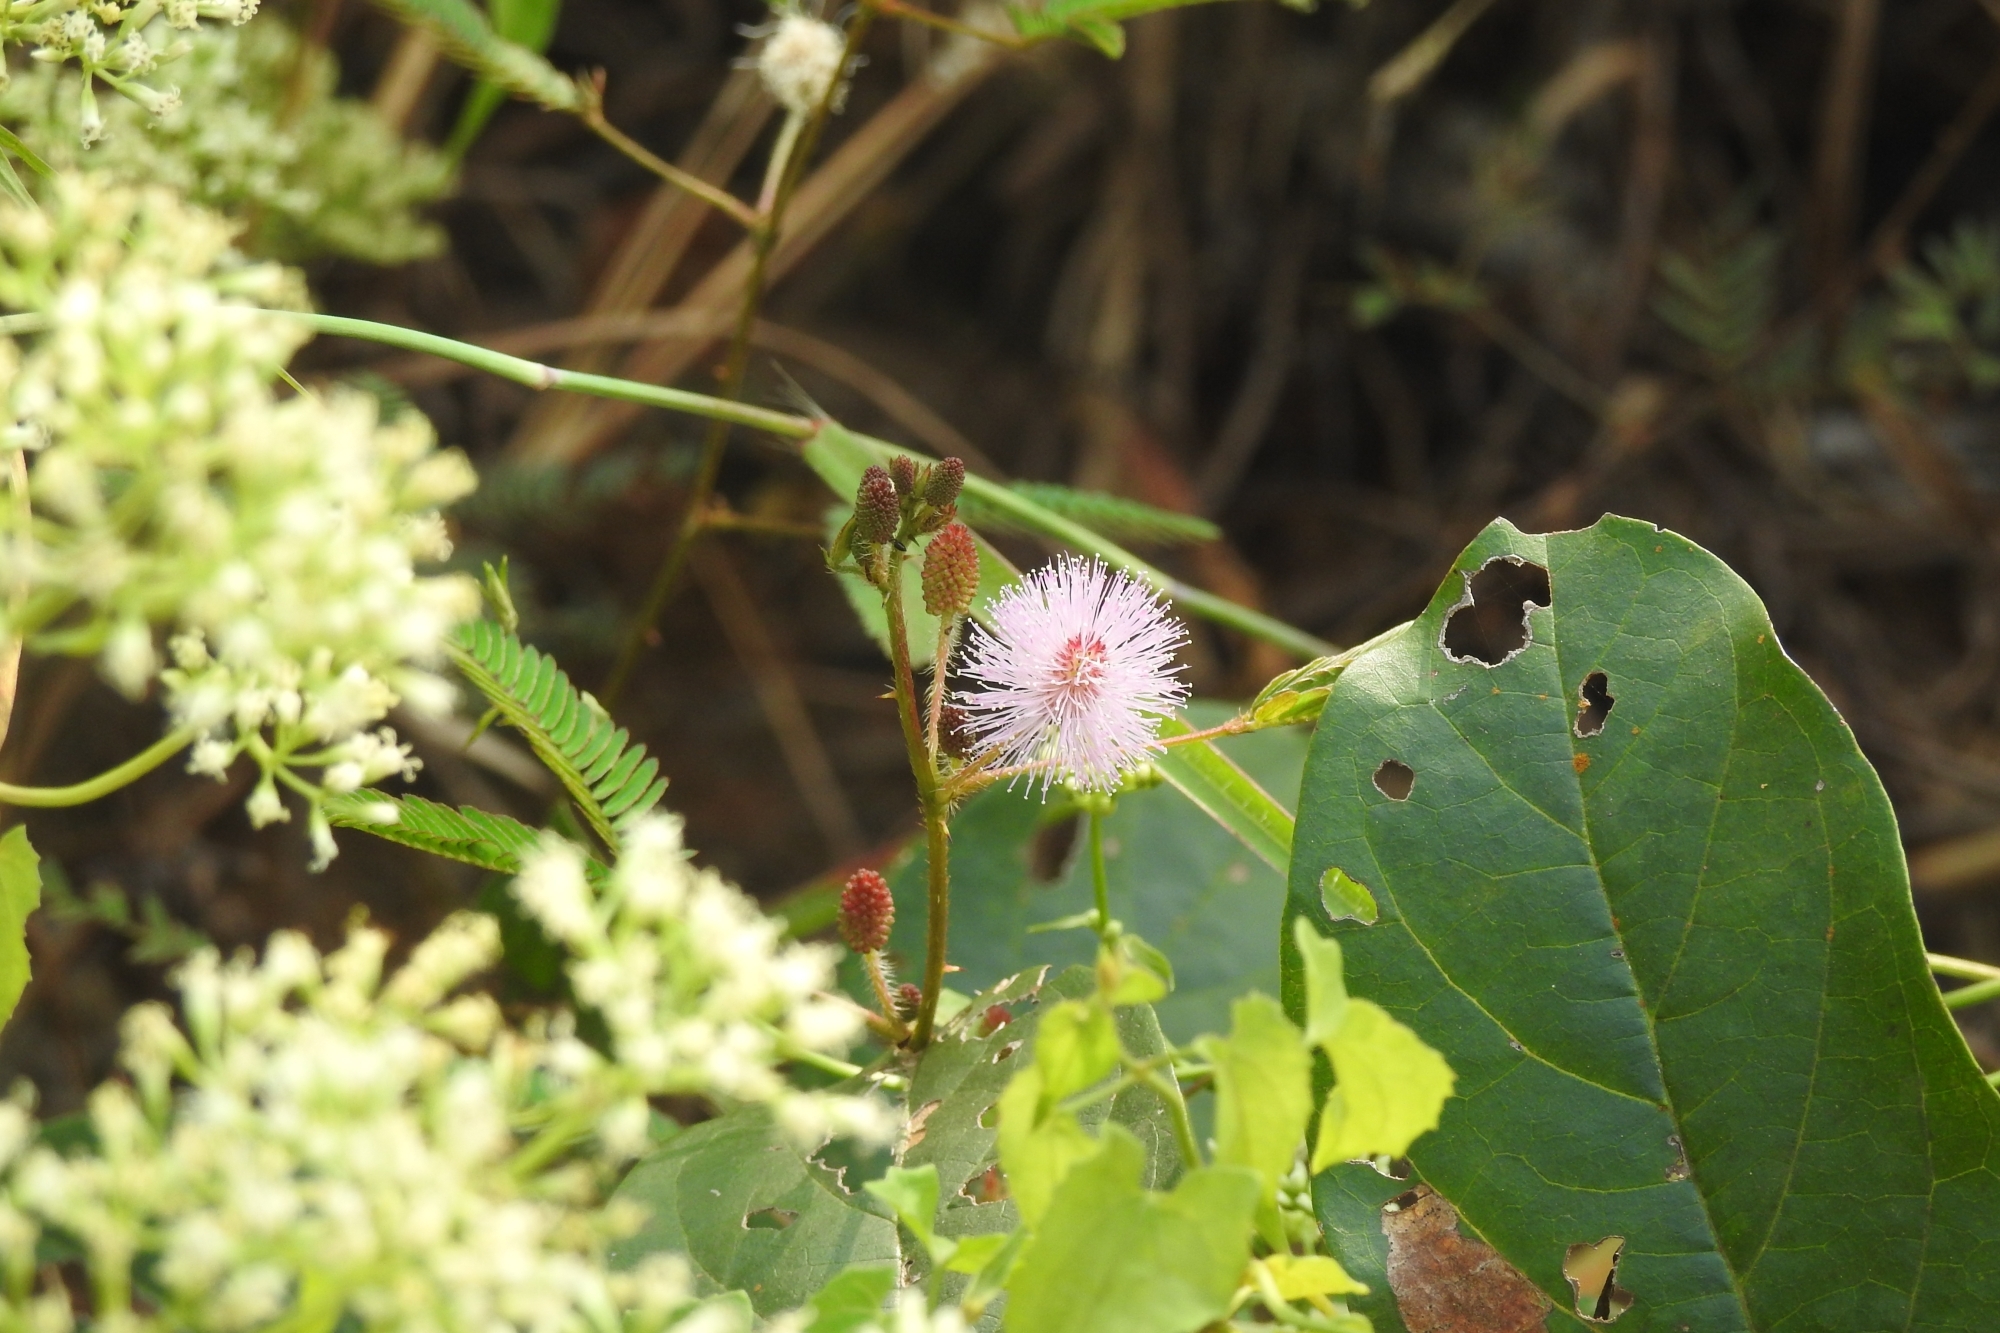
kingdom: Plantae
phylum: Tracheophyta
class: Magnoliopsida
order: Fabales
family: Fabaceae
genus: Mimosa
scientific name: Mimosa pudica
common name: Sensitive plant
